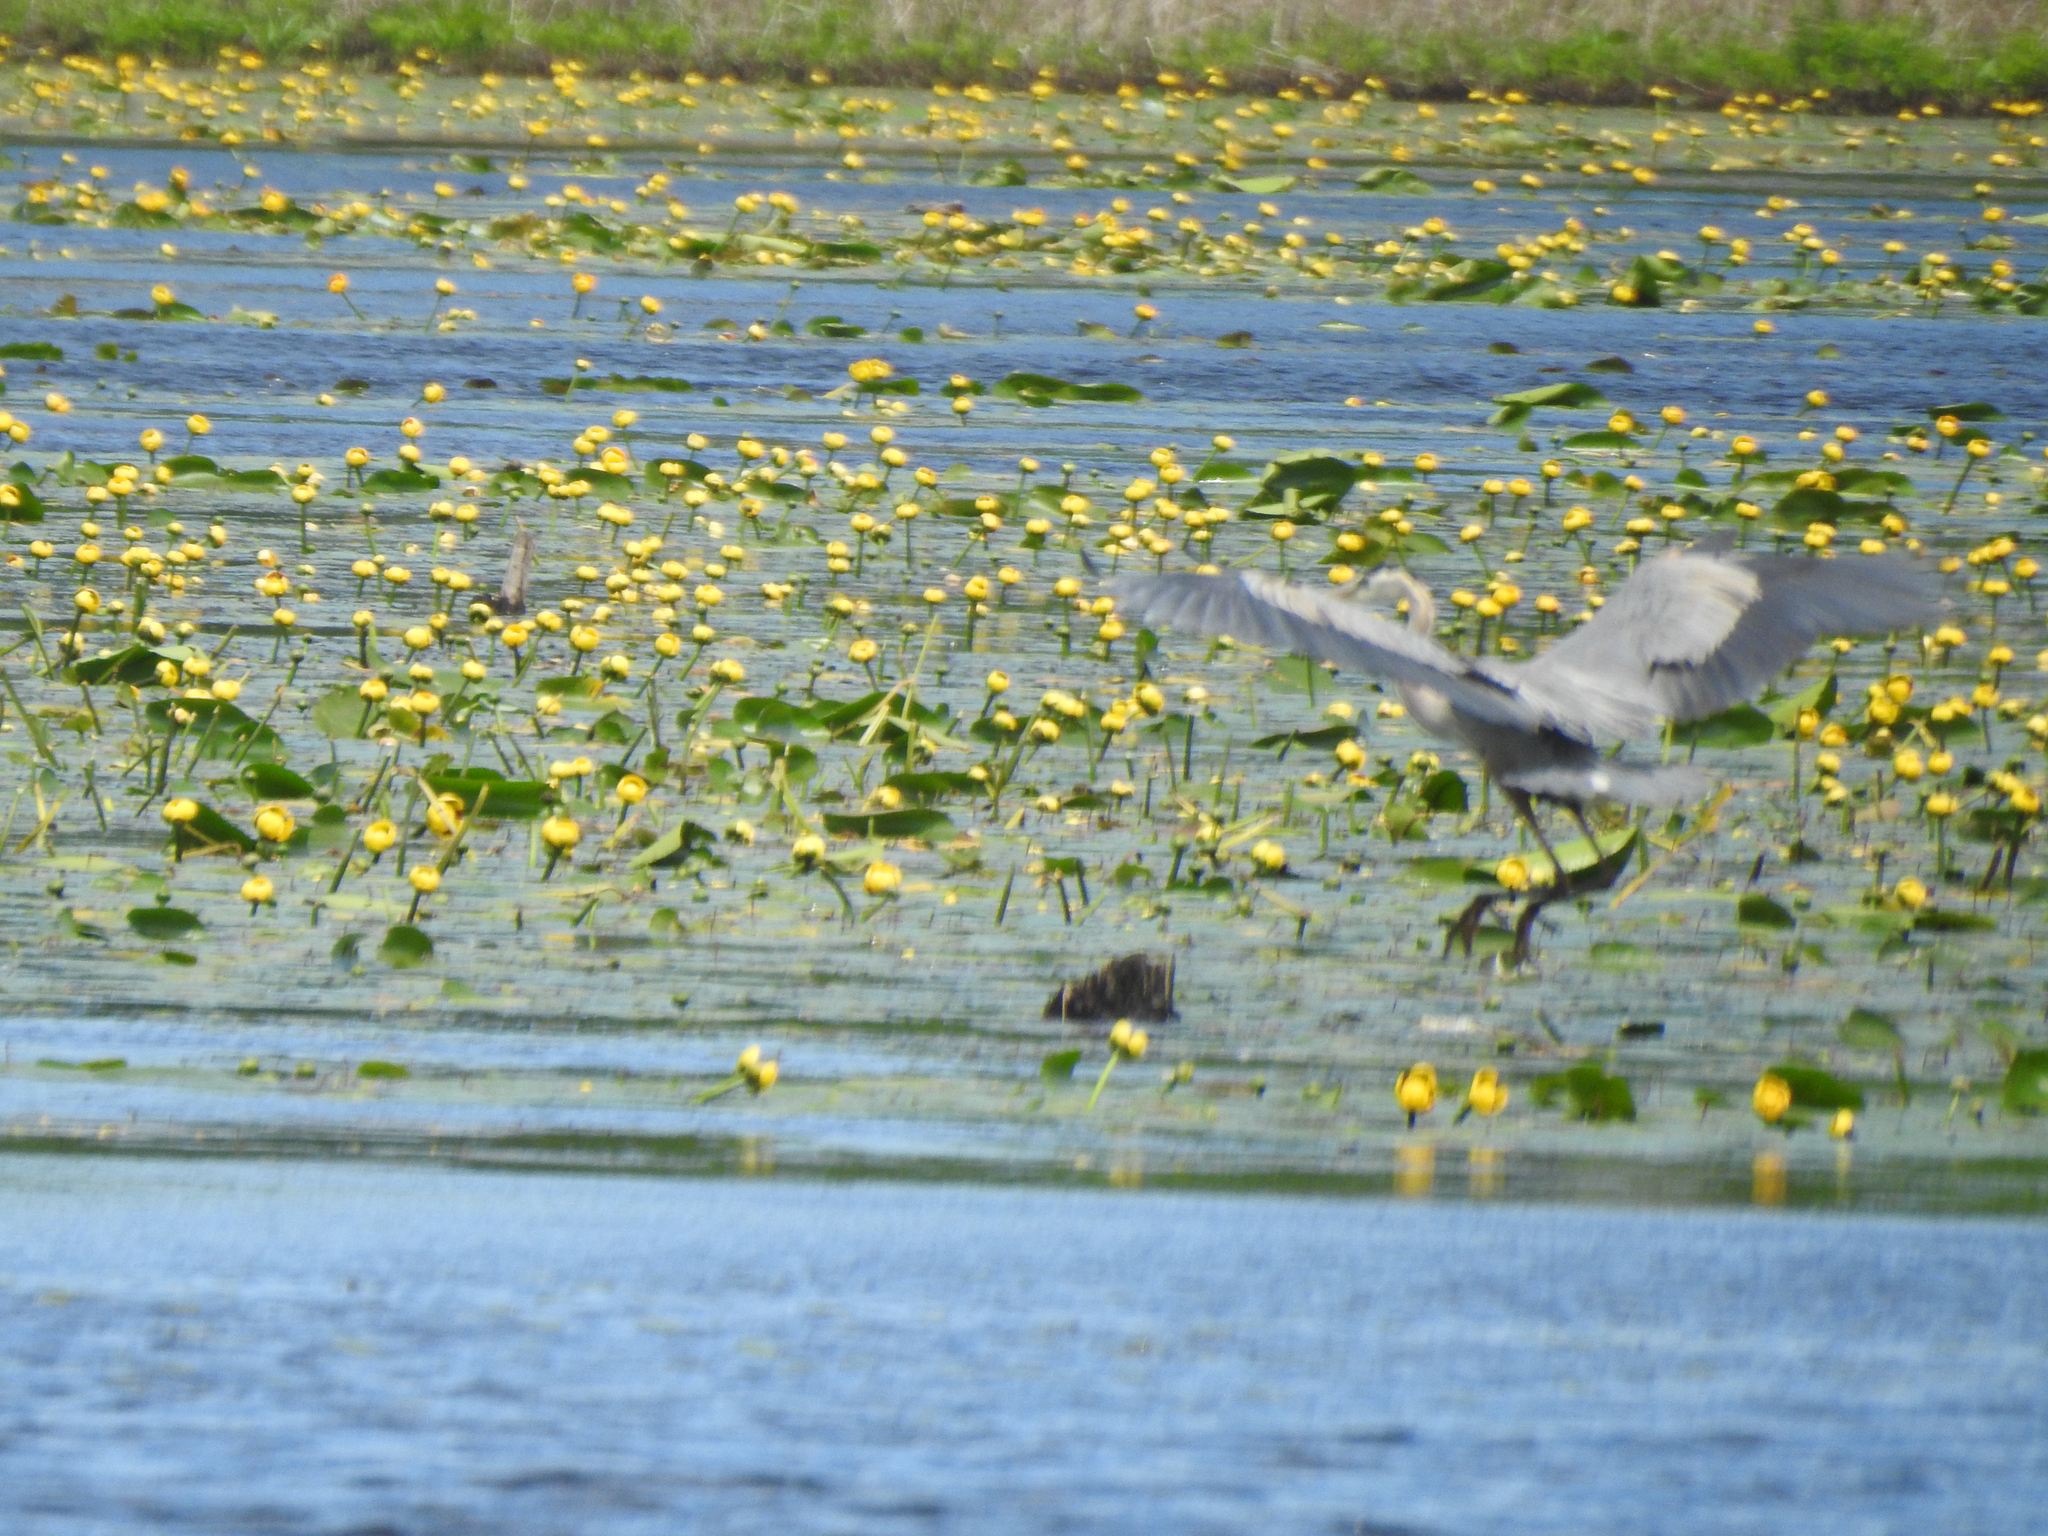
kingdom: Animalia
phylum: Chordata
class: Aves
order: Pelecaniformes
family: Ardeidae
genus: Ardea
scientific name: Ardea herodias
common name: Great blue heron
